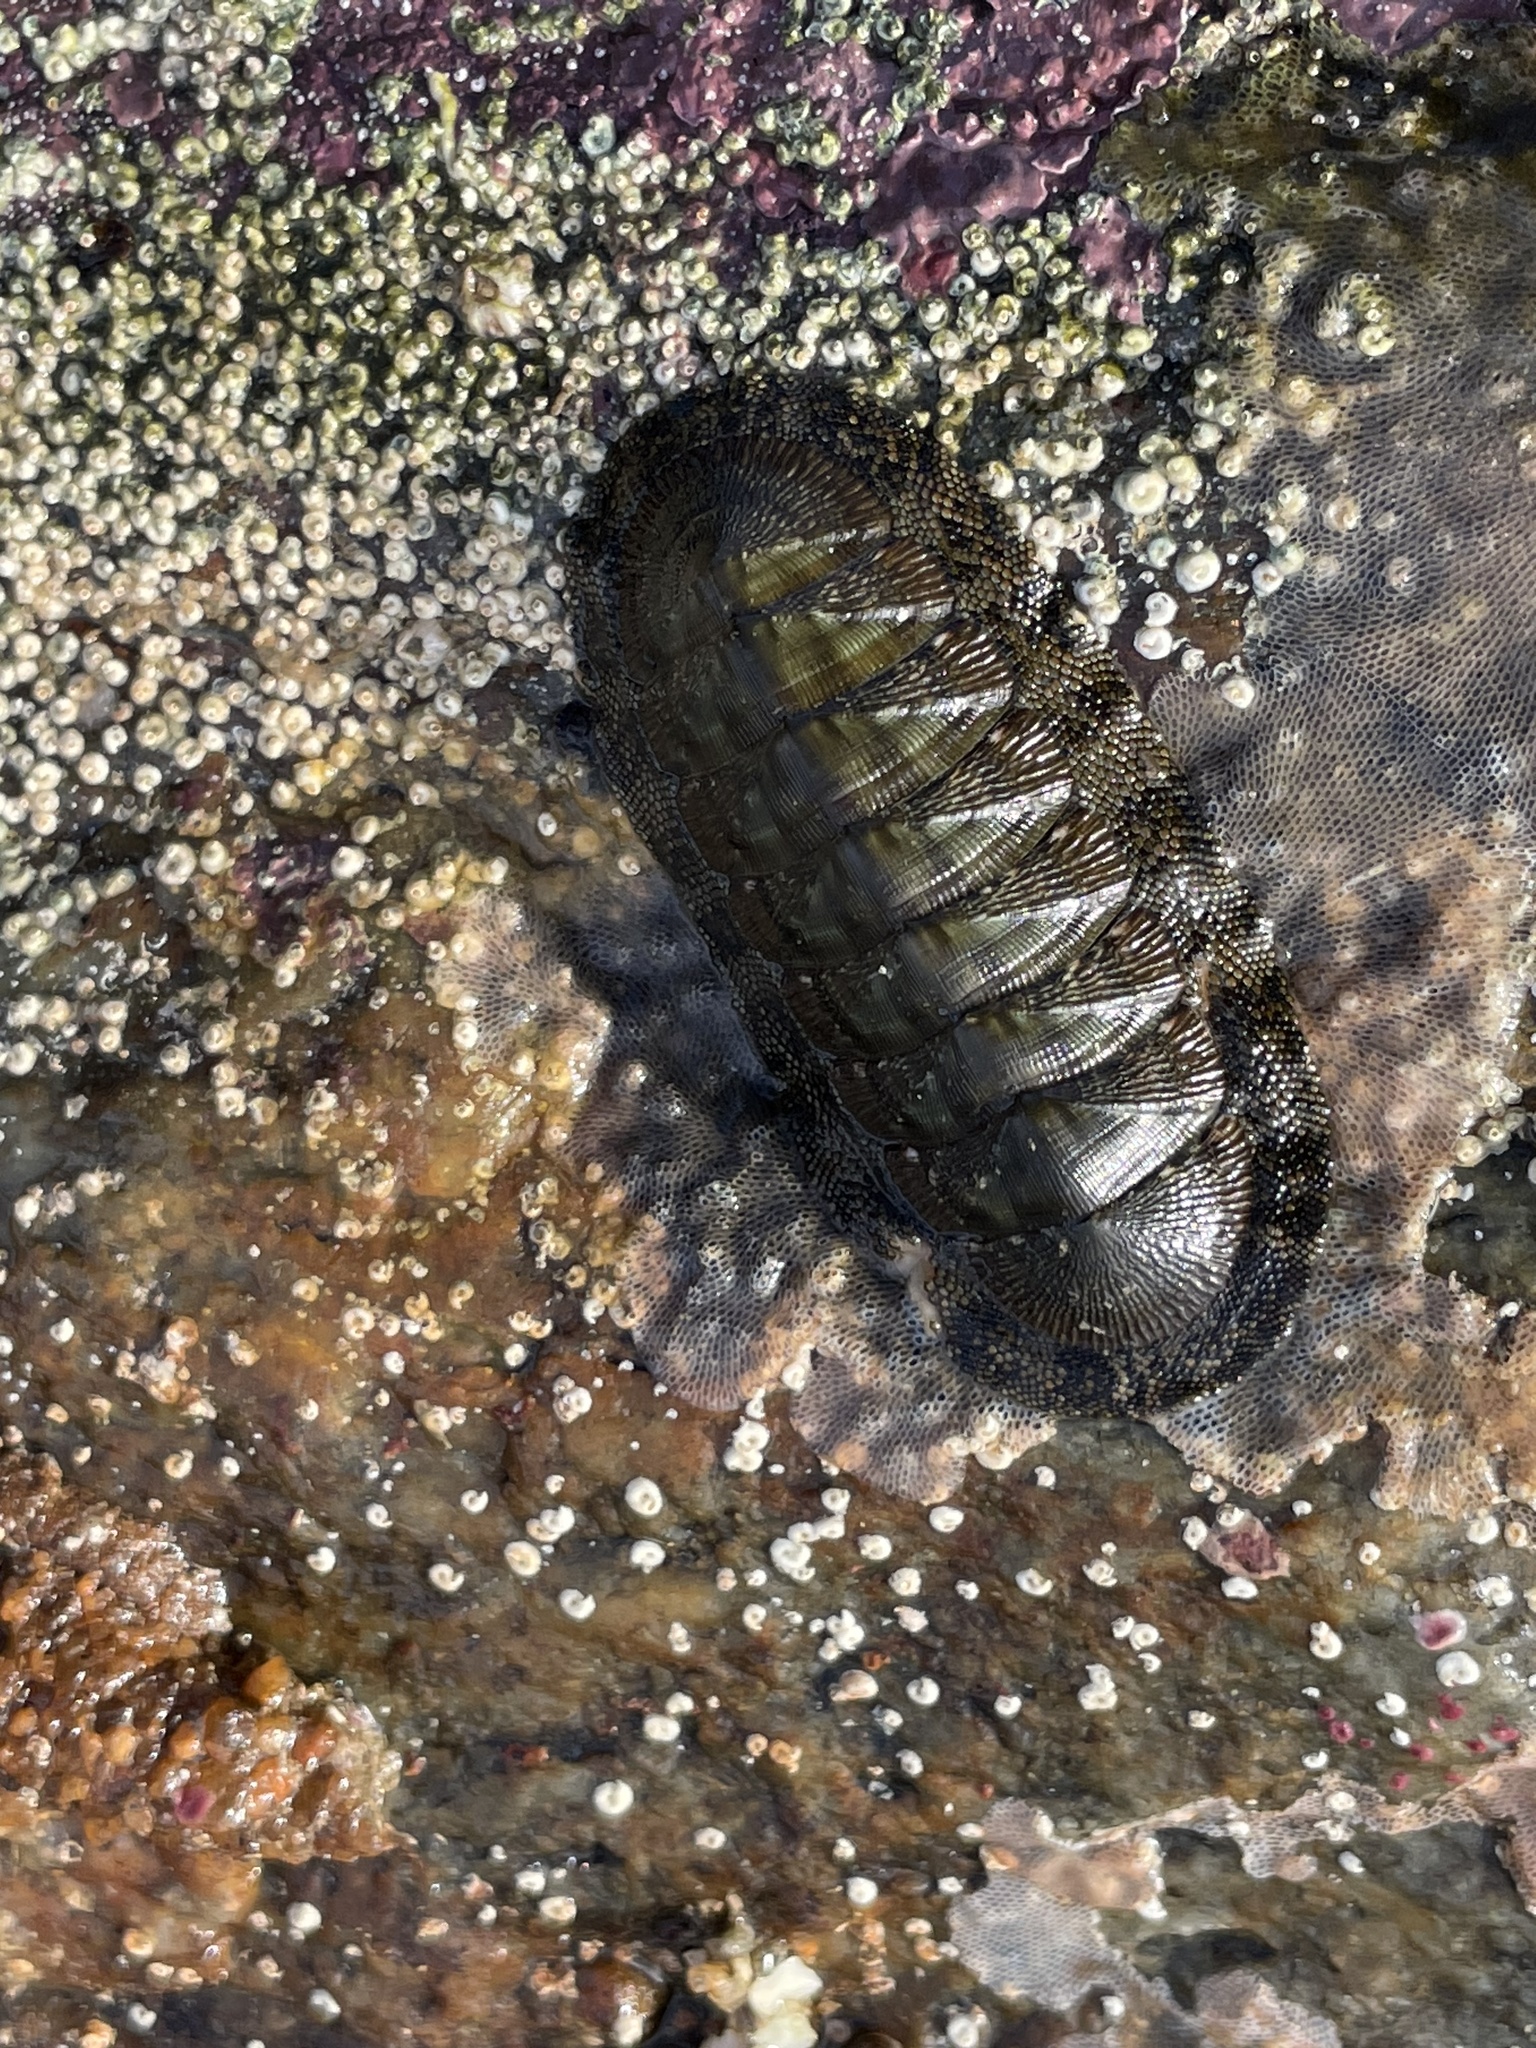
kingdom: Animalia
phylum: Mollusca
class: Polyplacophora
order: Chitonida
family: Chitonidae
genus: Chiton
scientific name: Chiton virgulatus
